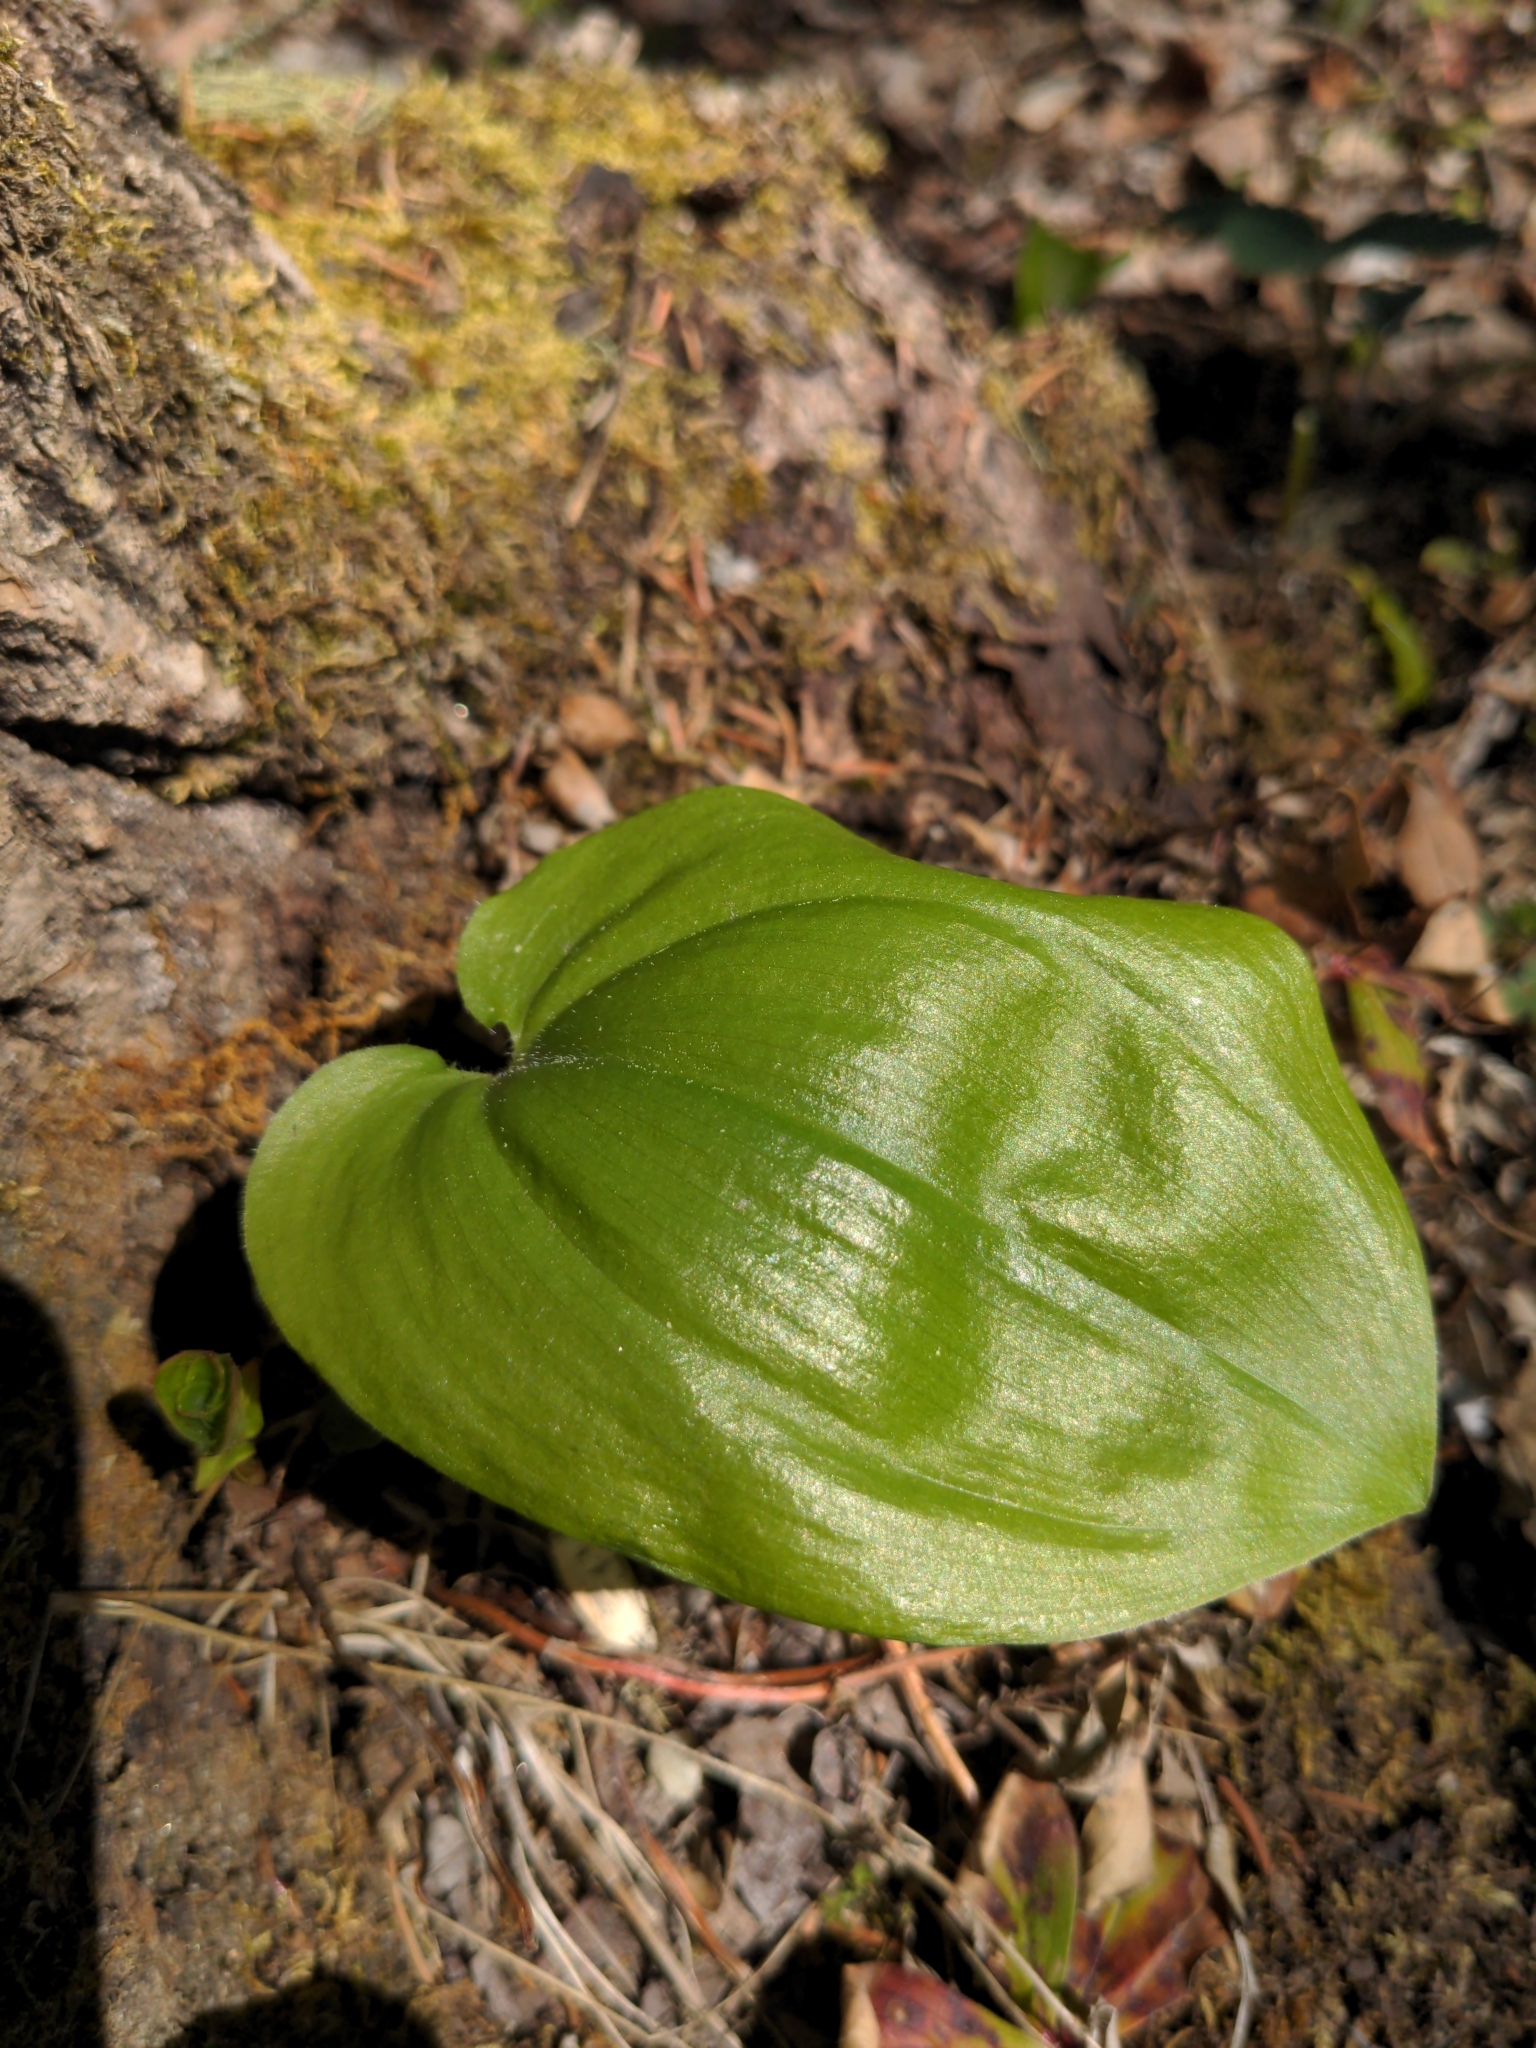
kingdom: Plantae
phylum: Tracheophyta
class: Liliopsida
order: Asparagales
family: Asparagaceae
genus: Maianthemum
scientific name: Maianthemum canadense
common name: False lily-of-the-valley
